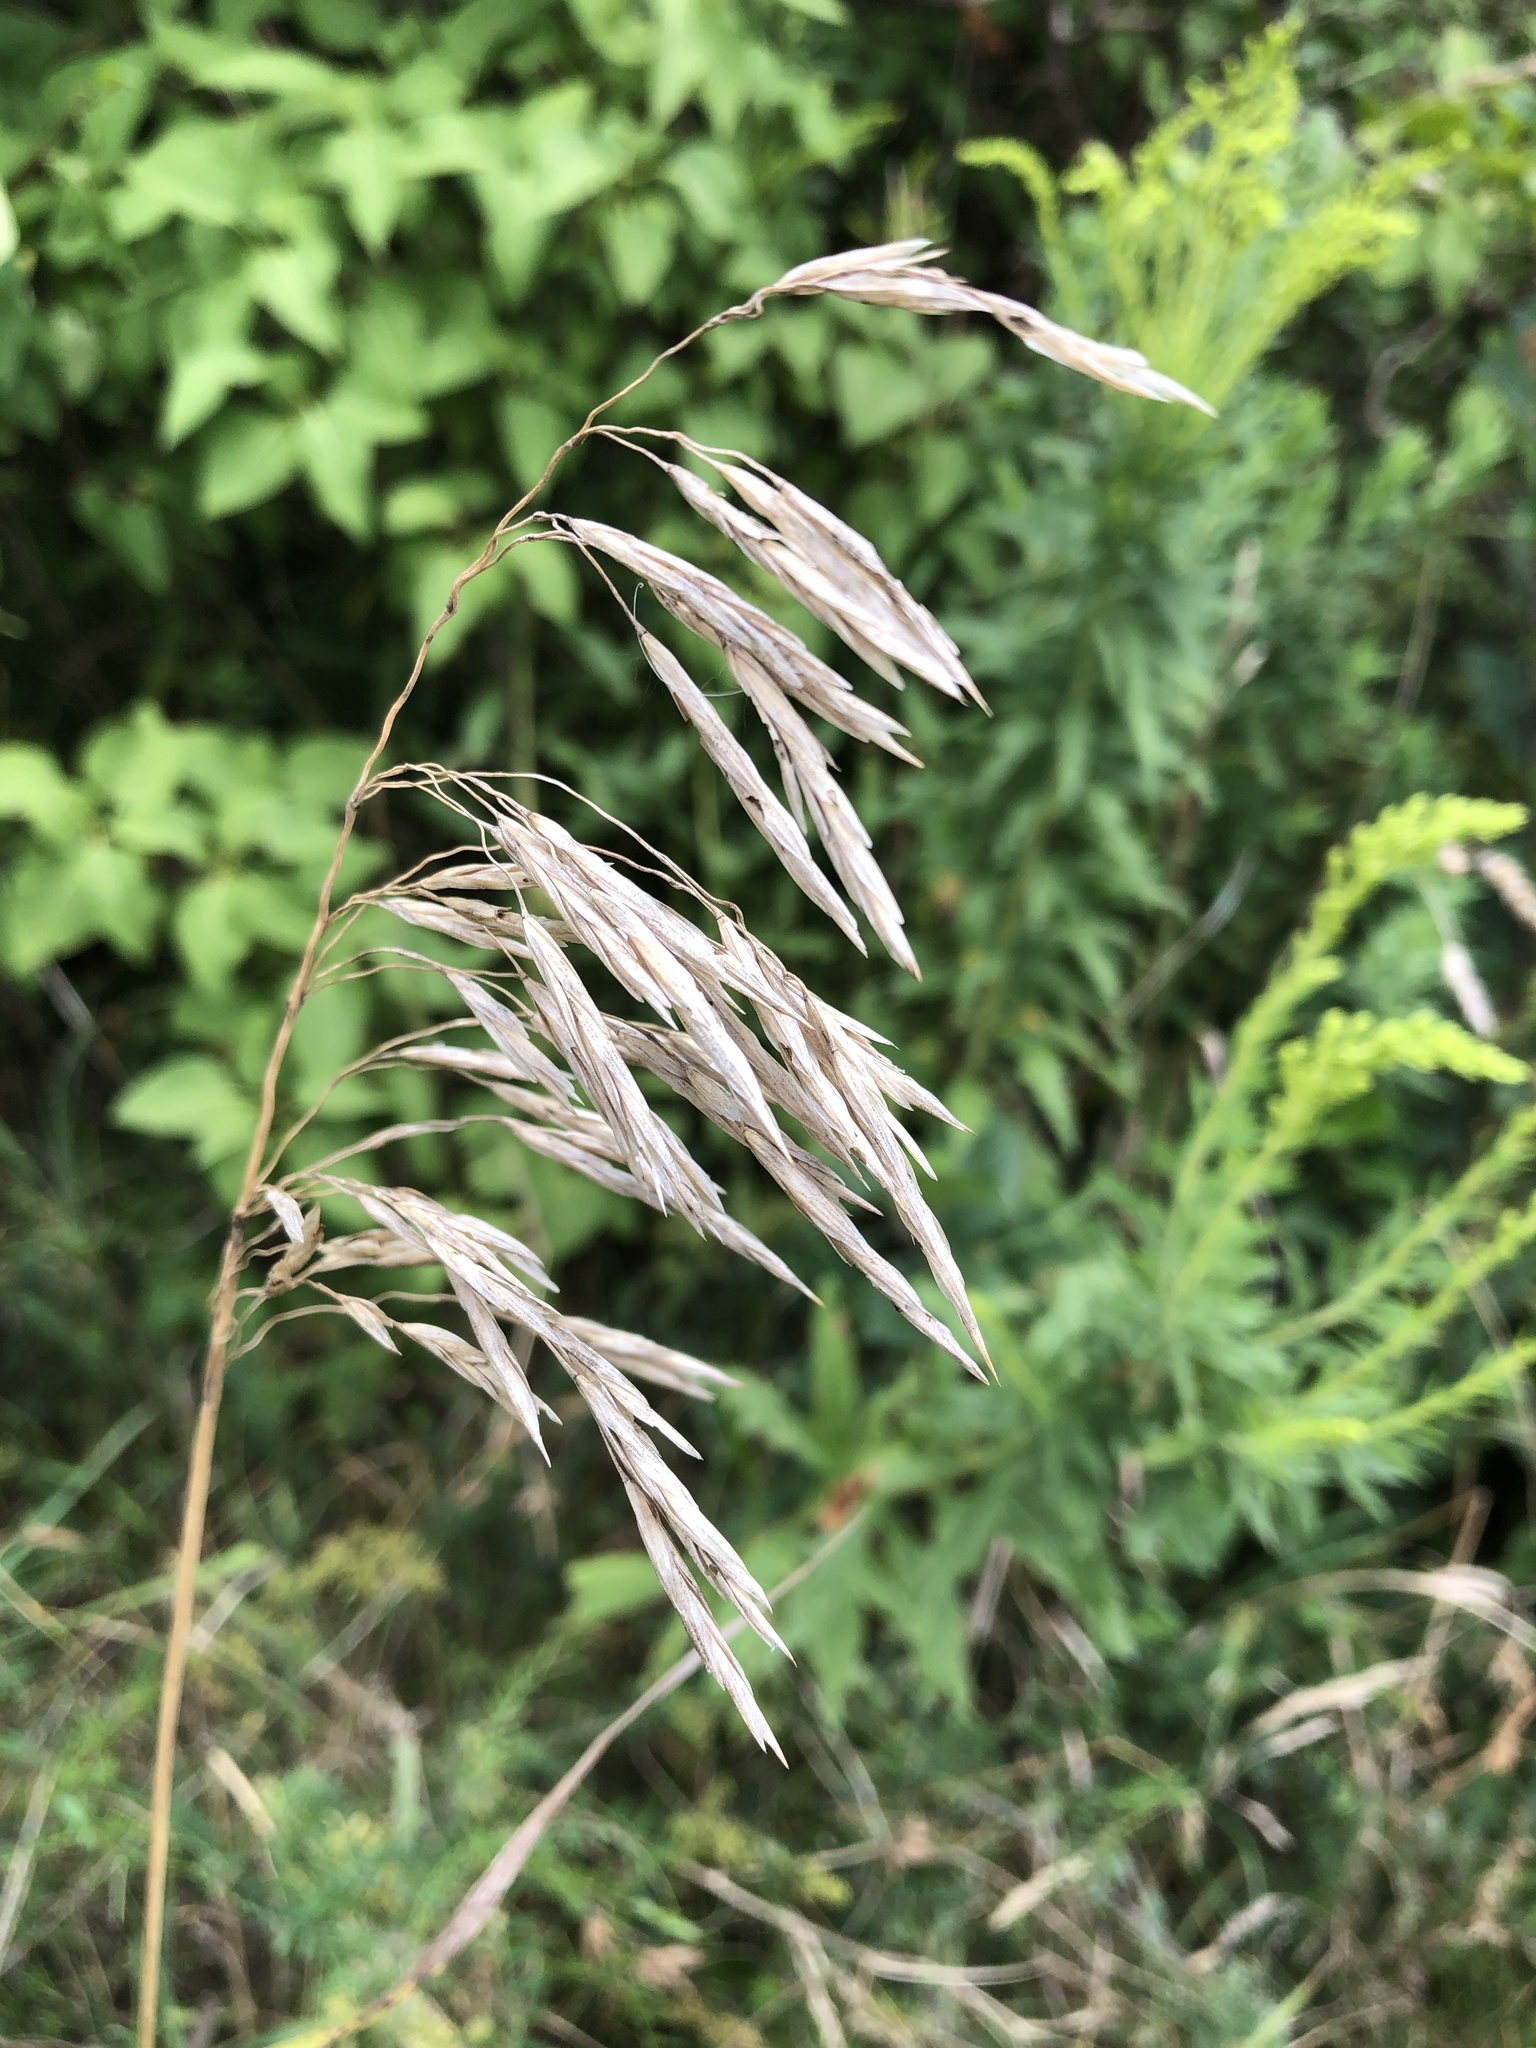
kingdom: Plantae
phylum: Tracheophyta
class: Liliopsida
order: Poales
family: Poaceae
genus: Bromus
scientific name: Bromus inermis
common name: Smooth brome
